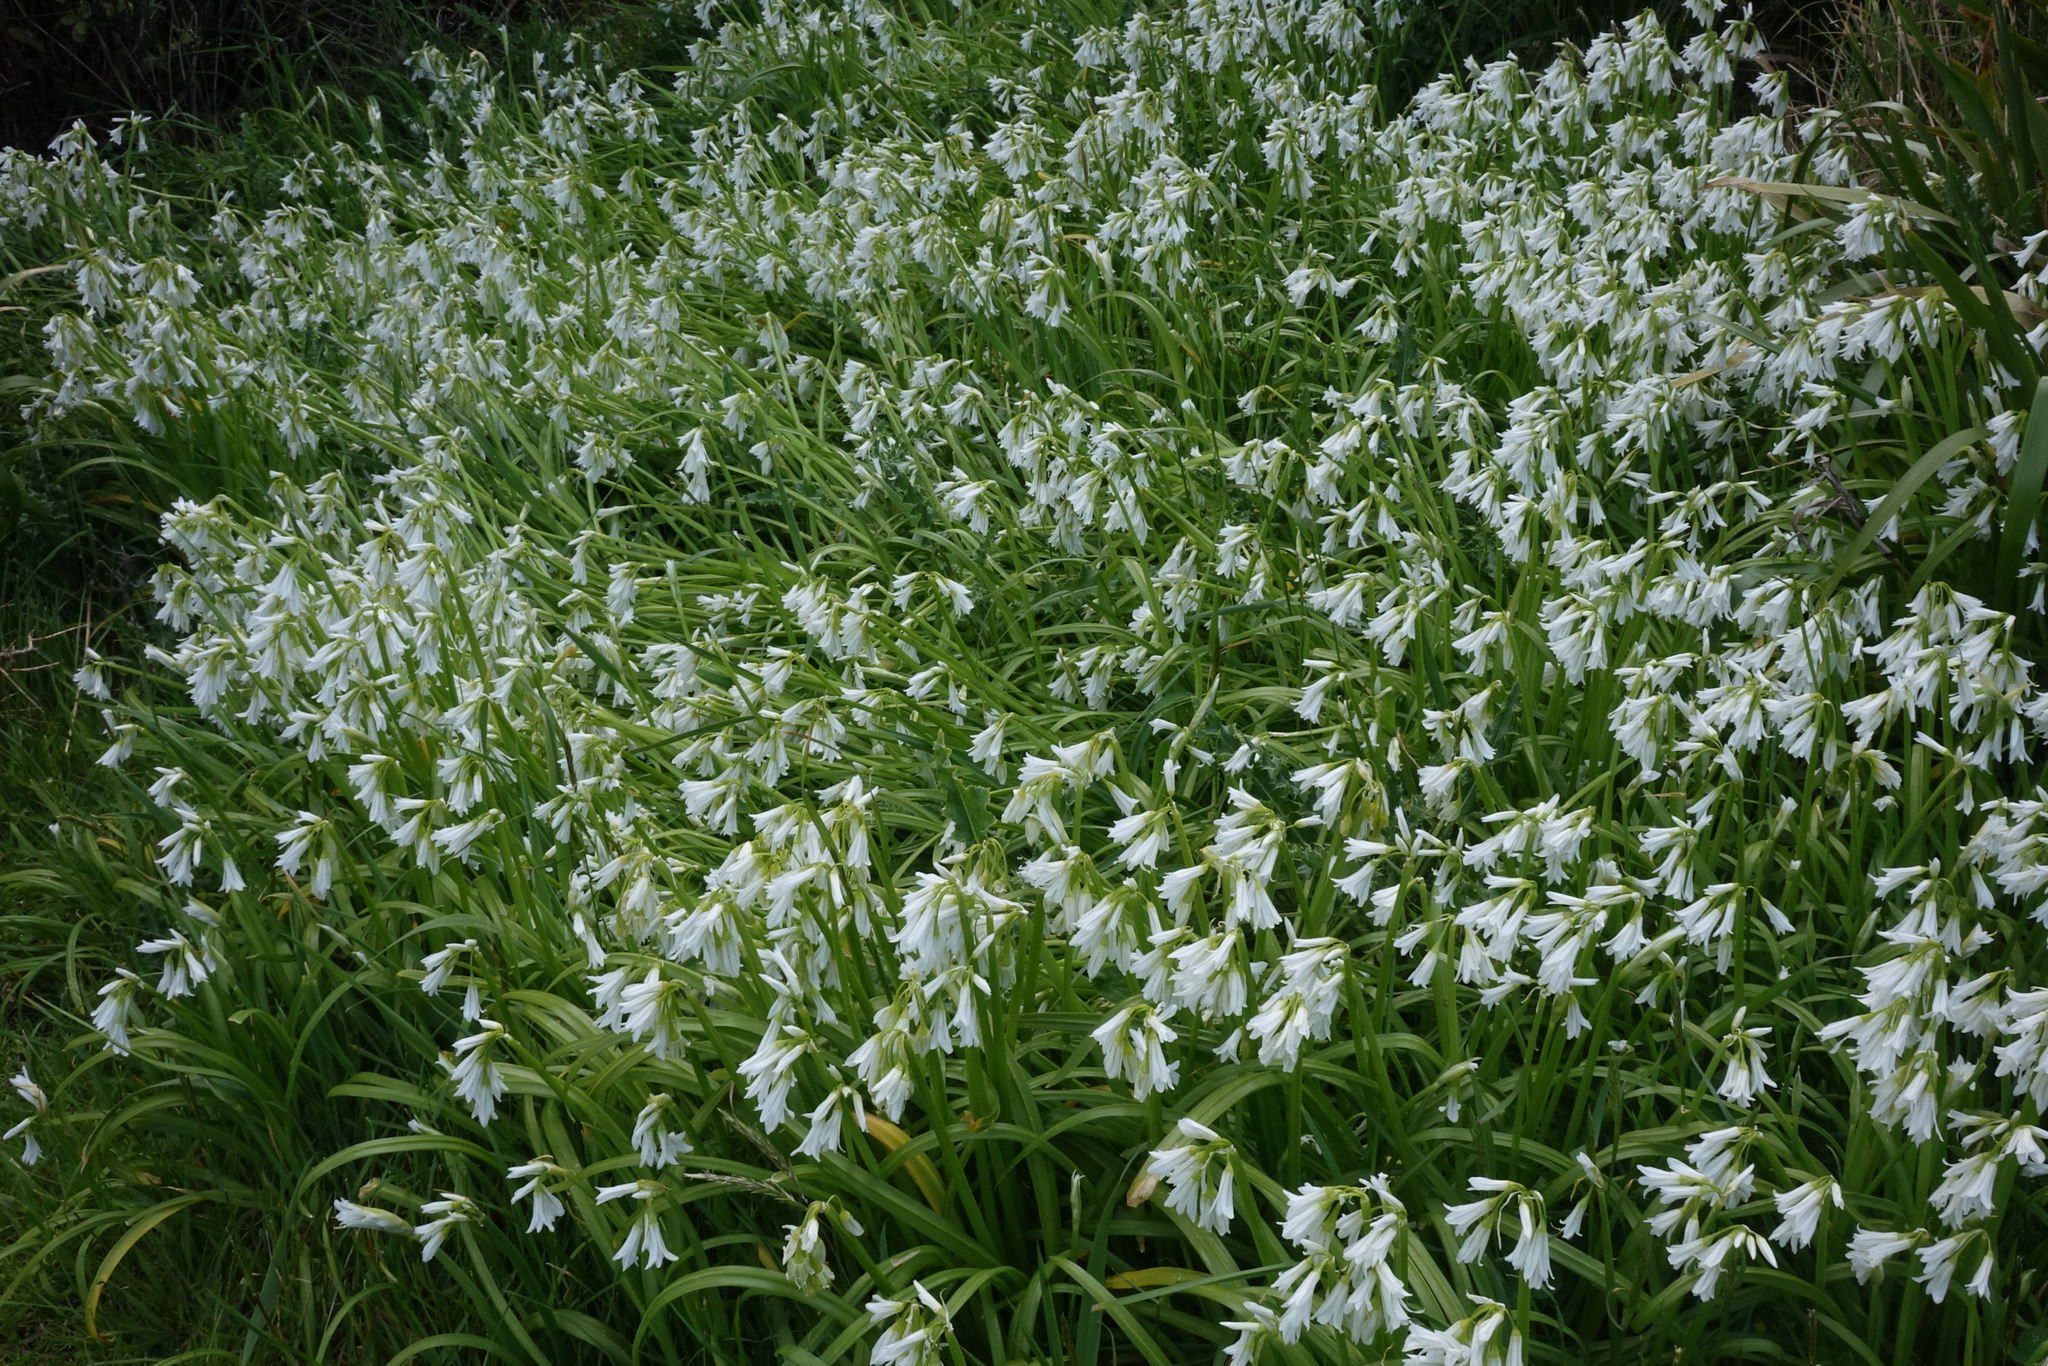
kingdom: Plantae
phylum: Tracheophyta
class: Liliopsida
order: Asparagales
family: Amaryllidaceae
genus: Allium
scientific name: Allium triquetrum
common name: Three-cornered garlic
